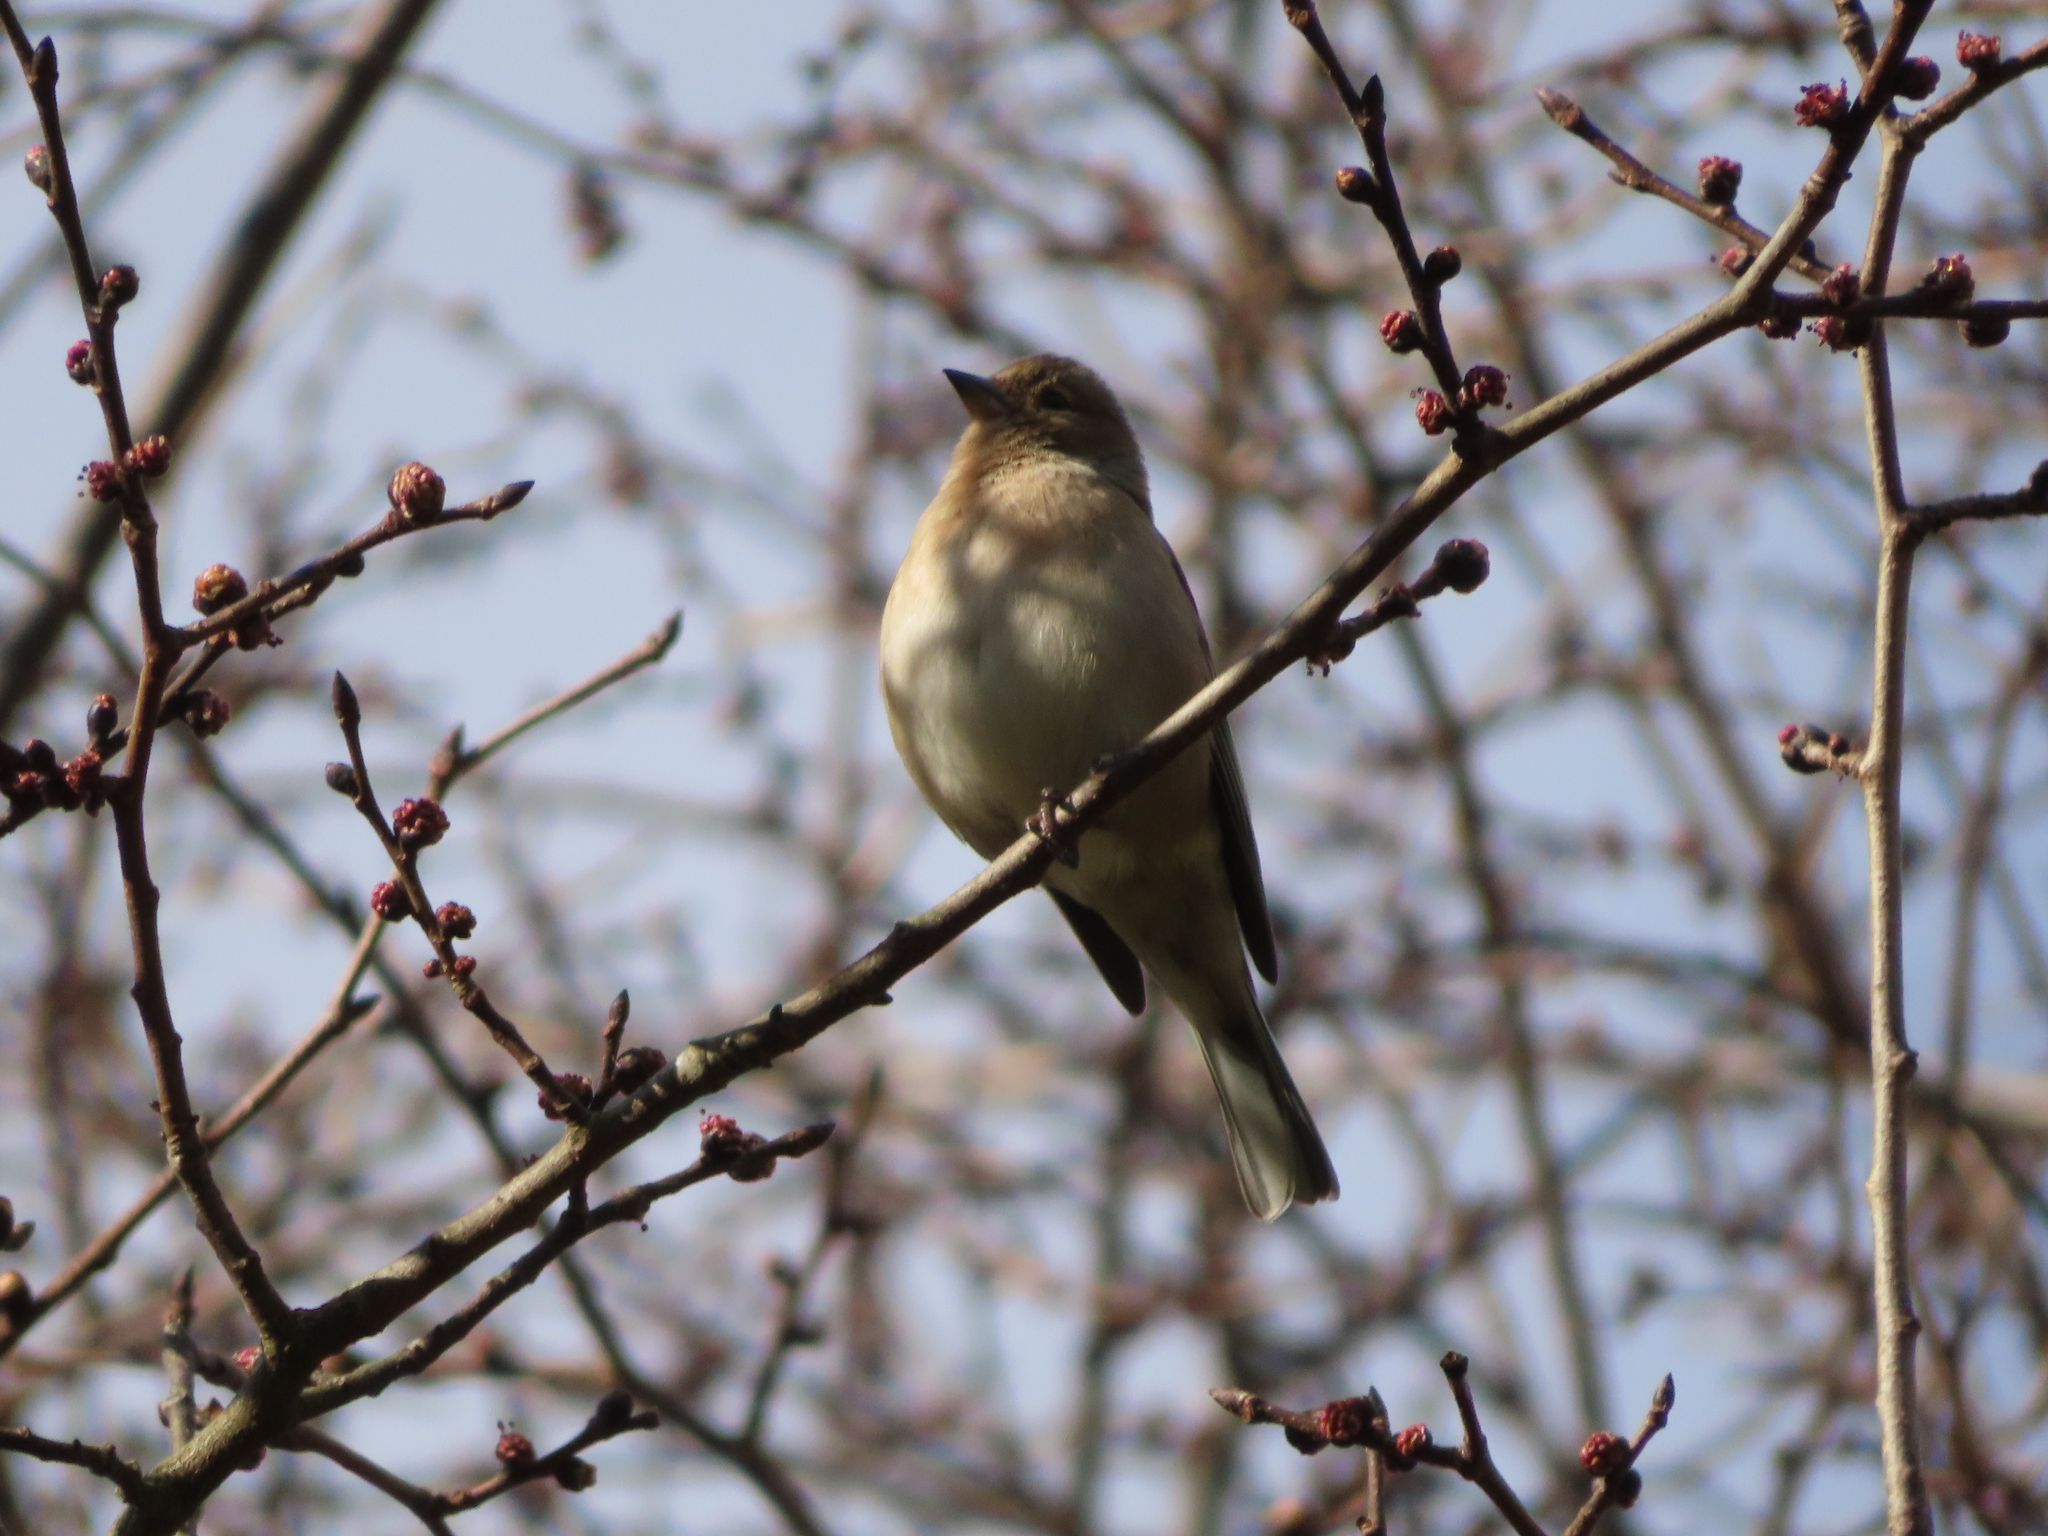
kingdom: Animalia
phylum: Chordata
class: Aves
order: Passeriformes
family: Fringillidae
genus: Fringilla
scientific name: Fringilla coelebs
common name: Common chaffinch
